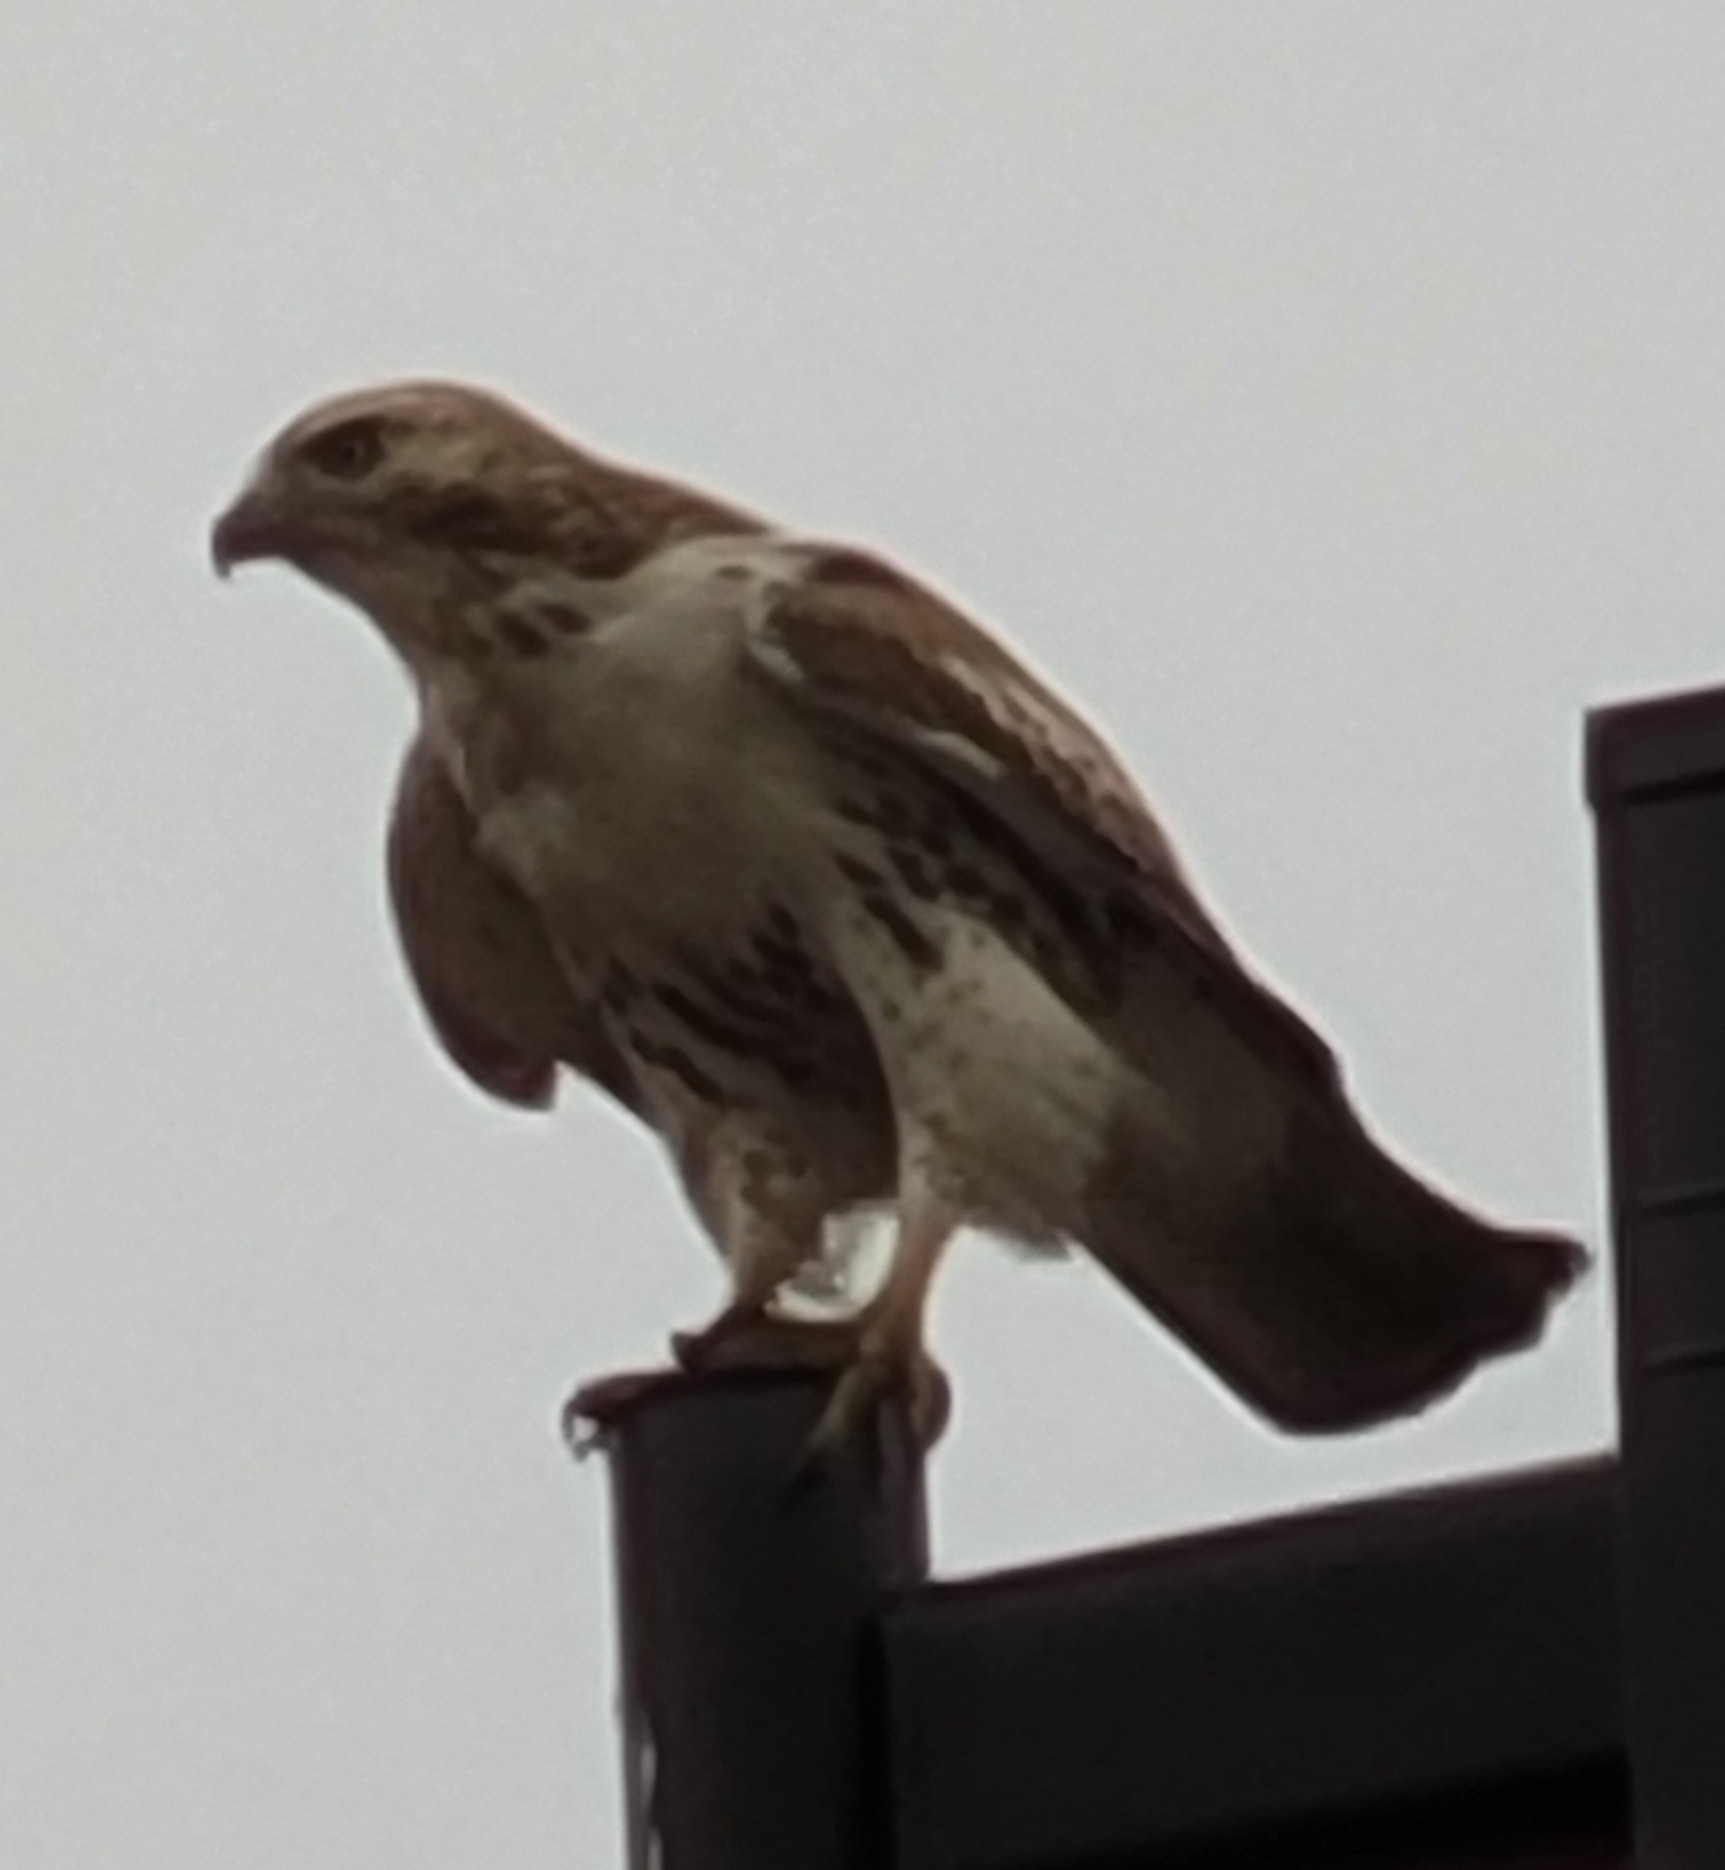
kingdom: Animalia
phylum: Chordata
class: Aves
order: Accipitriformes
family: Accipitridae
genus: Buteo
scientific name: Buteo jamaicensis
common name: Red-tailed hawk
